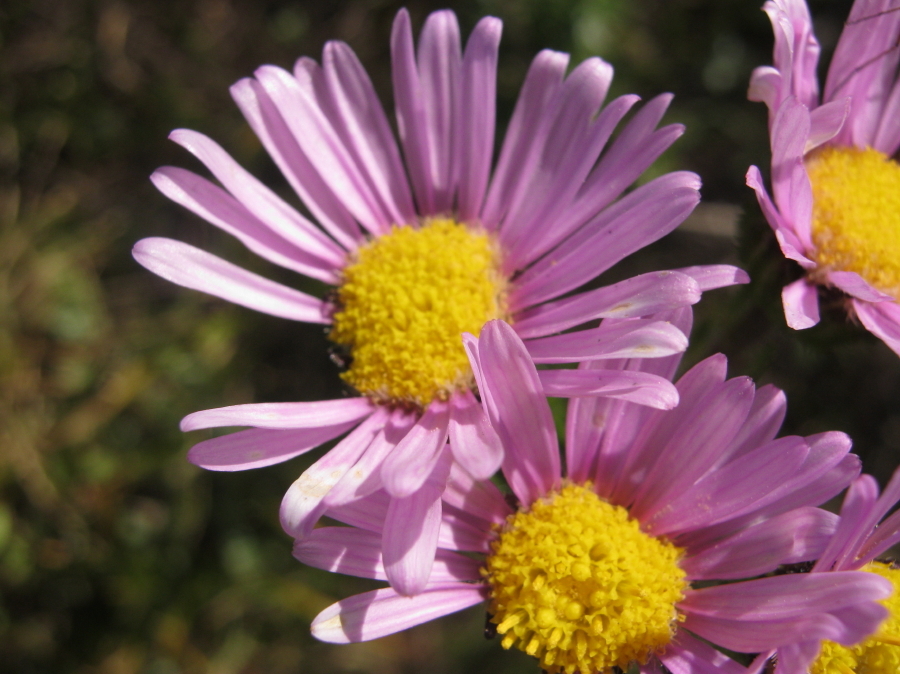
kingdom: Plantae
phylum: Tracheophyta
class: Magnoliopsida
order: Asterales
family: Asteraceae
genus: Felicia
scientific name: Felicia echinata
